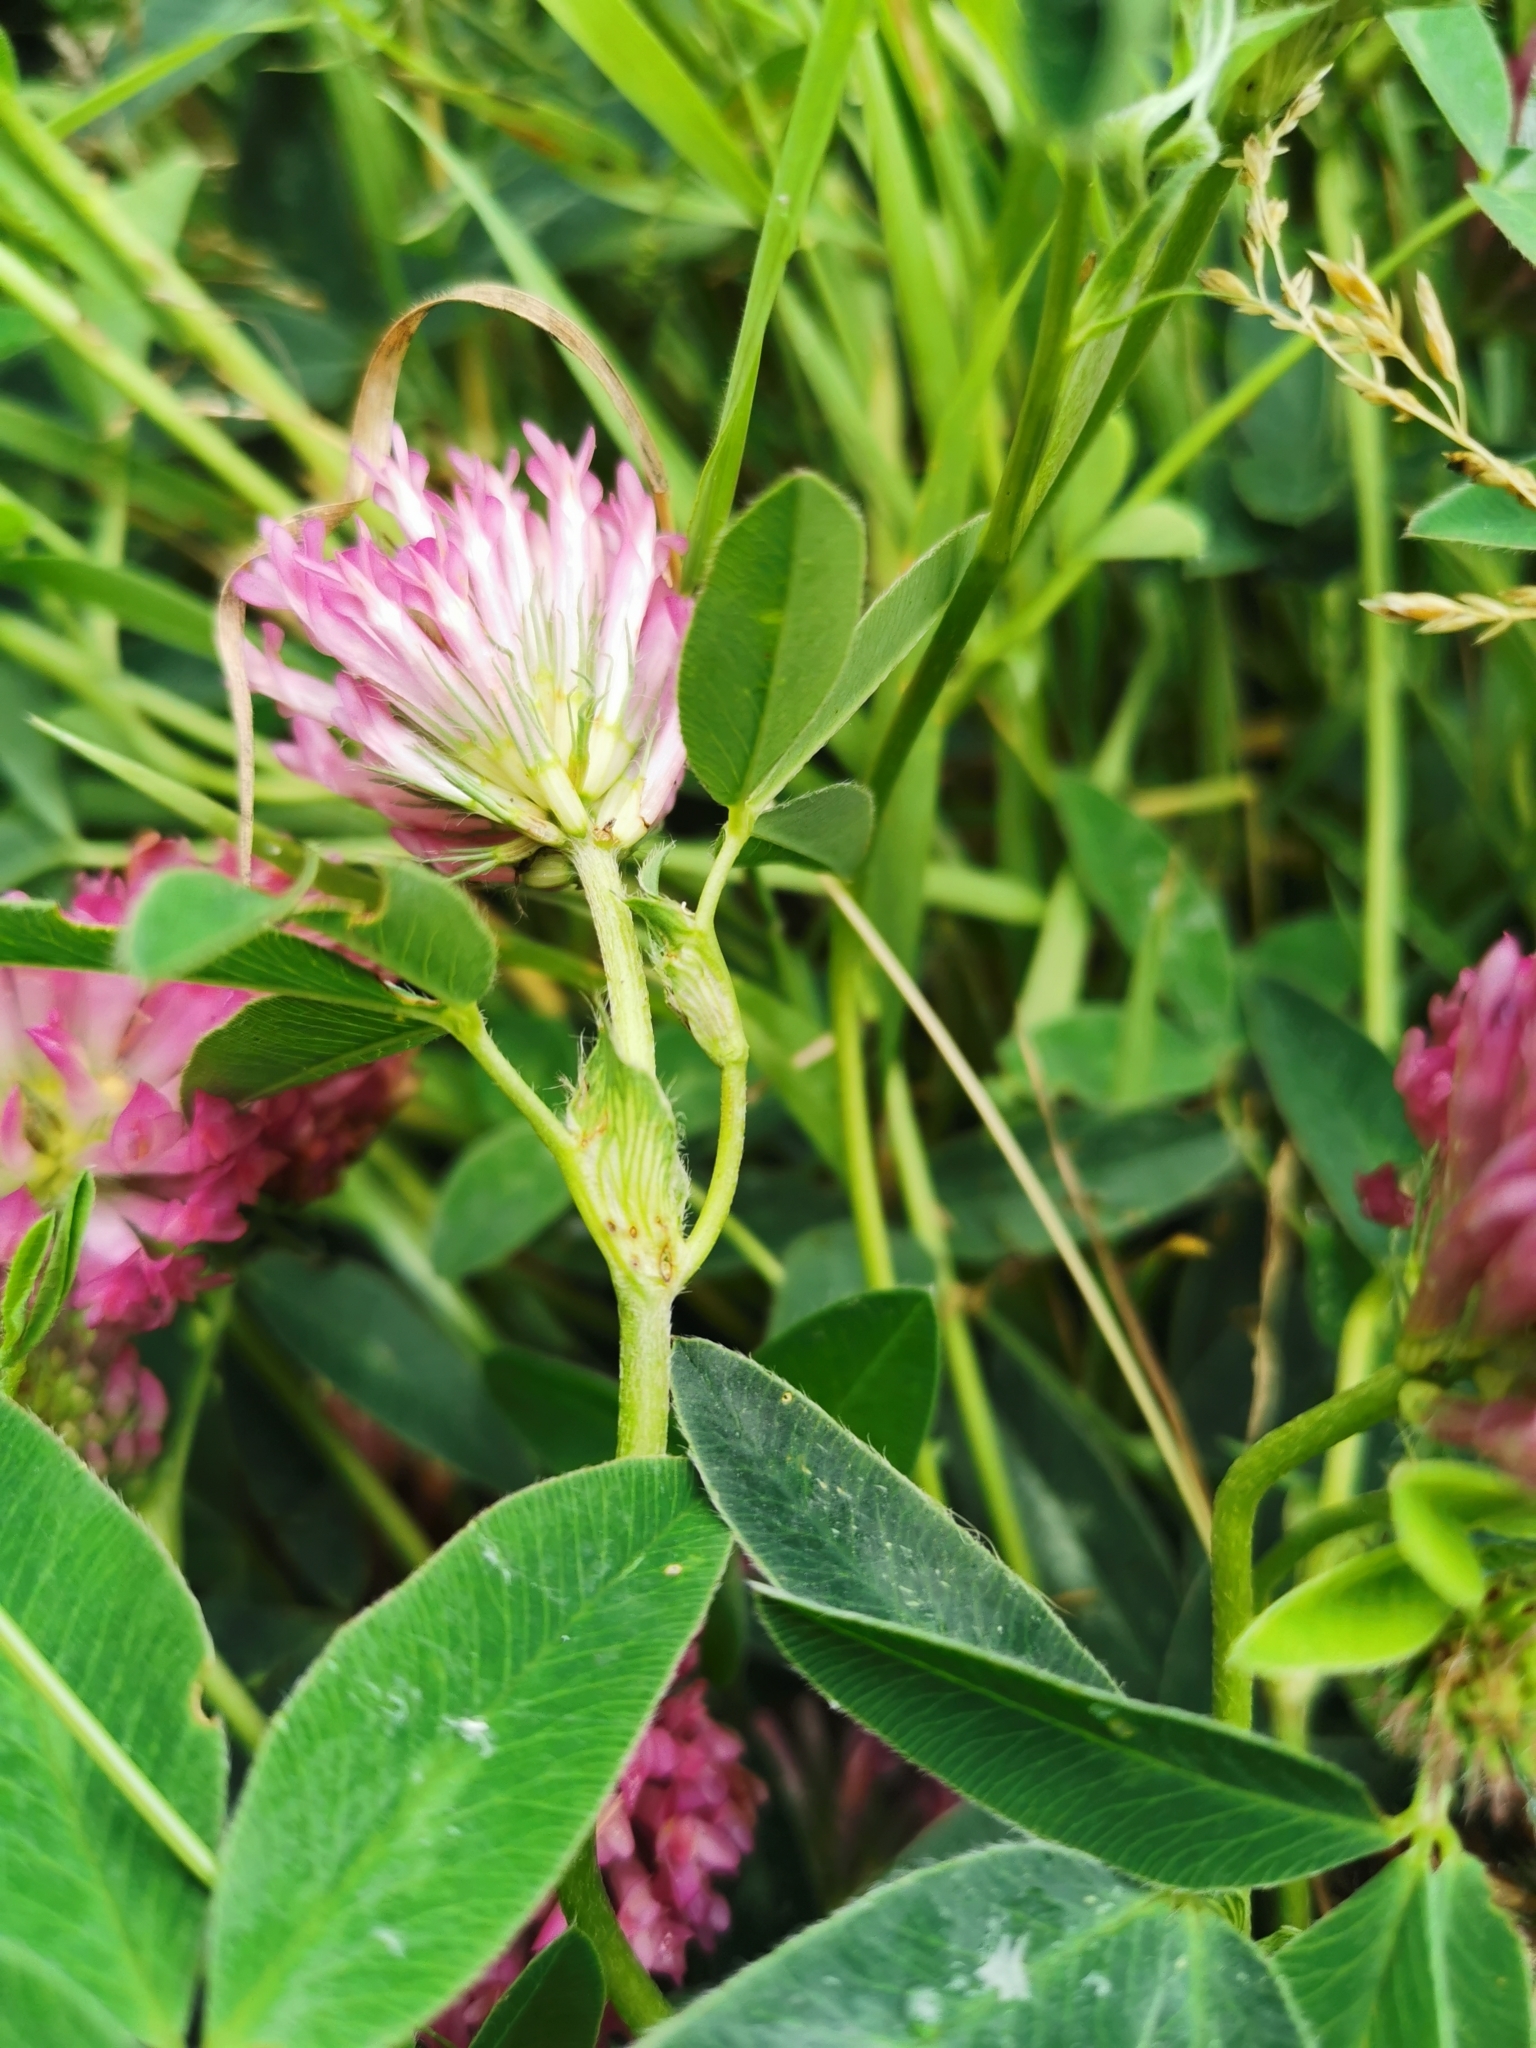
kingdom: Plantae
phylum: Tracheophyta
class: Magnoliopsida
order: Fabales
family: Fabaceae
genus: Trifolium
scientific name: Trifolium medium
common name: Zigzag clover
